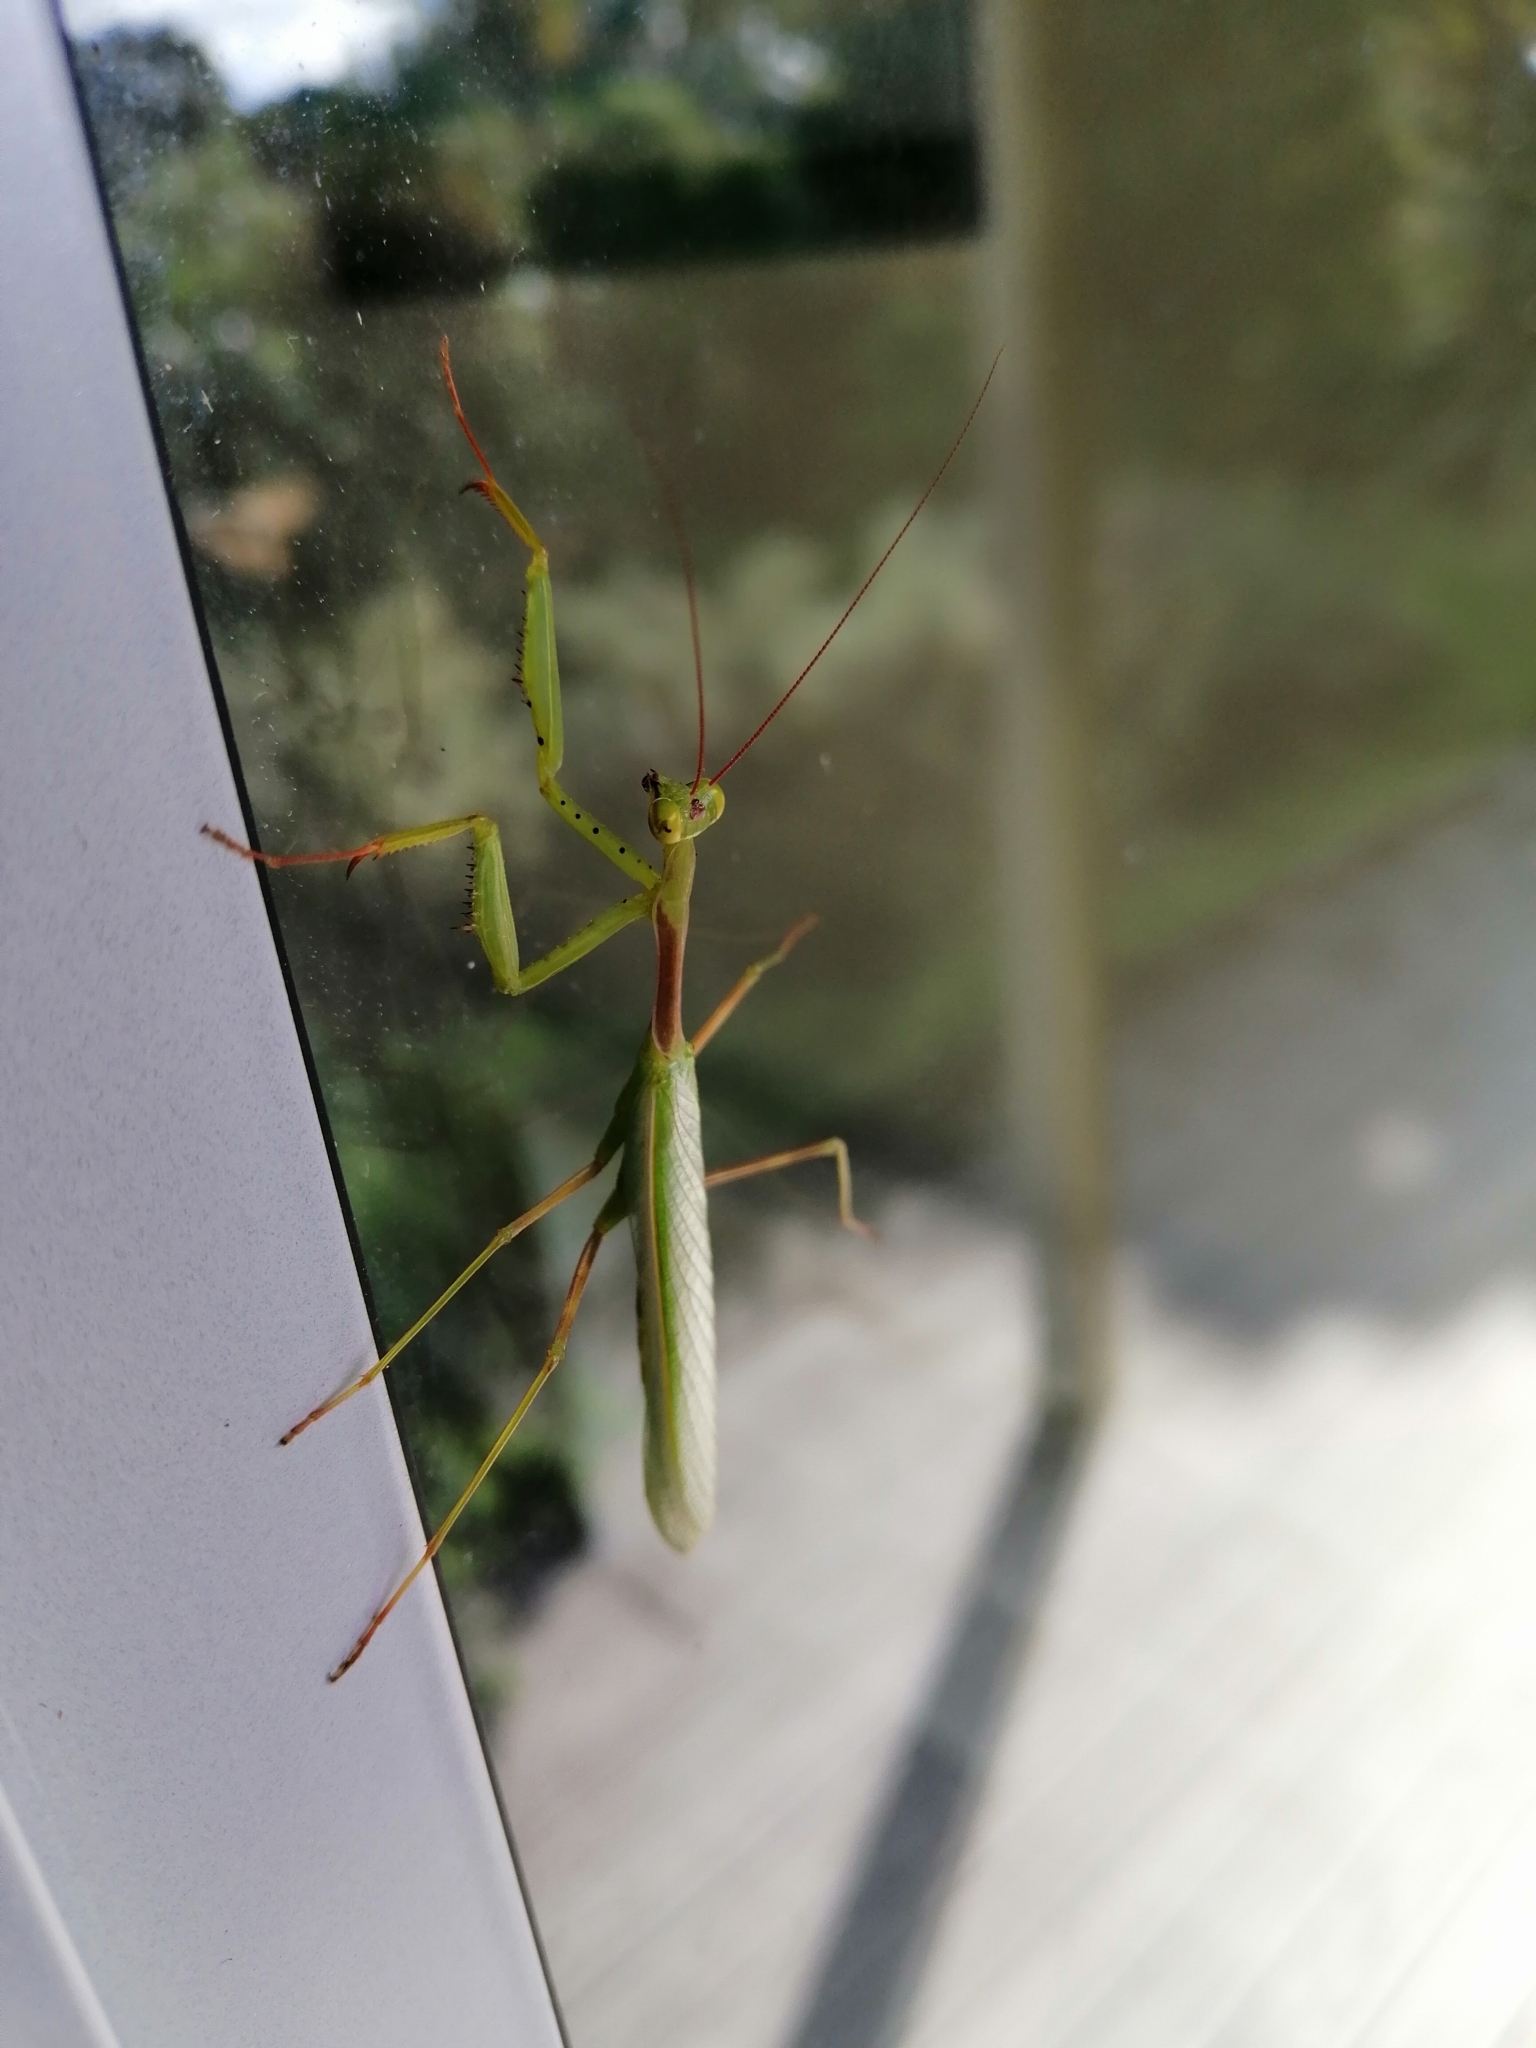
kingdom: Animalia
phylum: Arthropoda
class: Insecta
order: Mantodea
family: Miomantidae
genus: Miomantis
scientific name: Miomantis caffra
